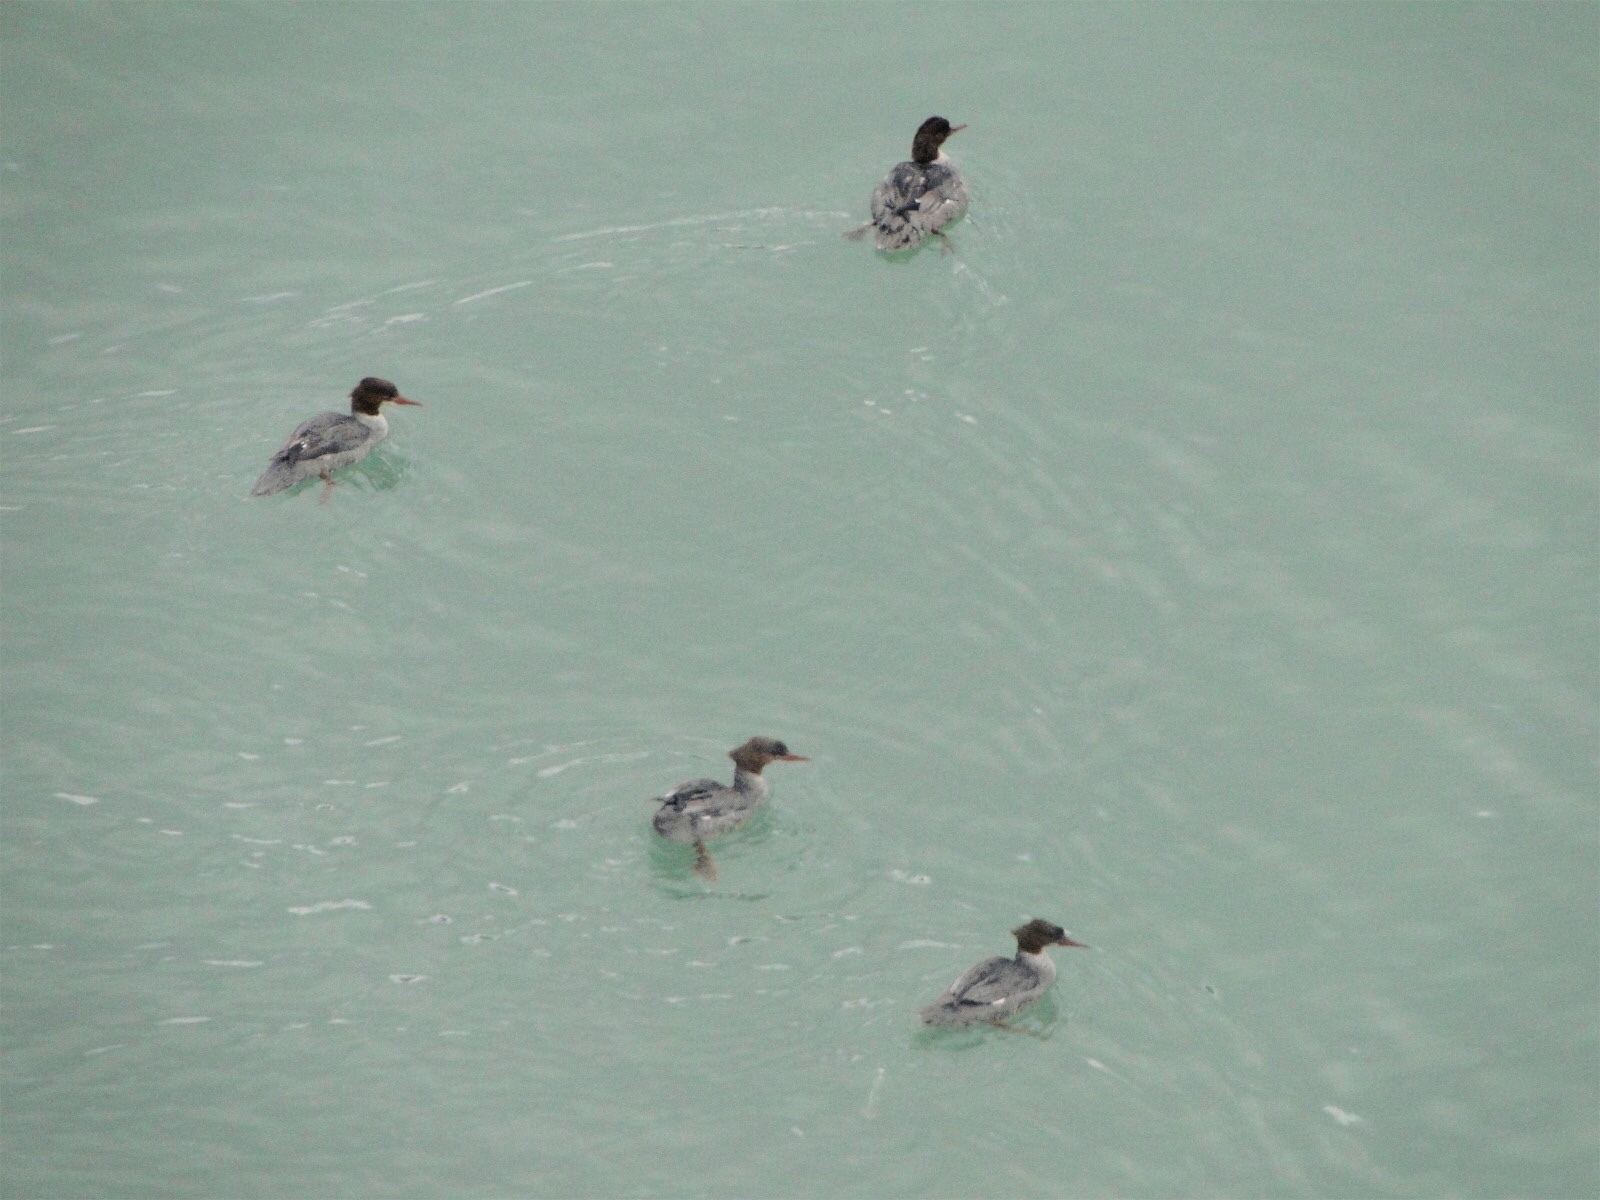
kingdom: Animalia
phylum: Chordata
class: Aves
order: Anseriformes
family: Anatidae
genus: Mergus
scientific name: Mergus merganser
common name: Common merganser
